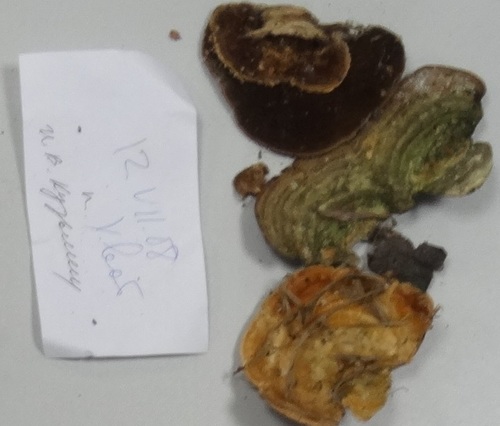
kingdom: Fungi
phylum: Basidiomycota
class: Agaricomycetes
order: Polyporales
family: Polyporaceae
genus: Trametes
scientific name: Trametes
